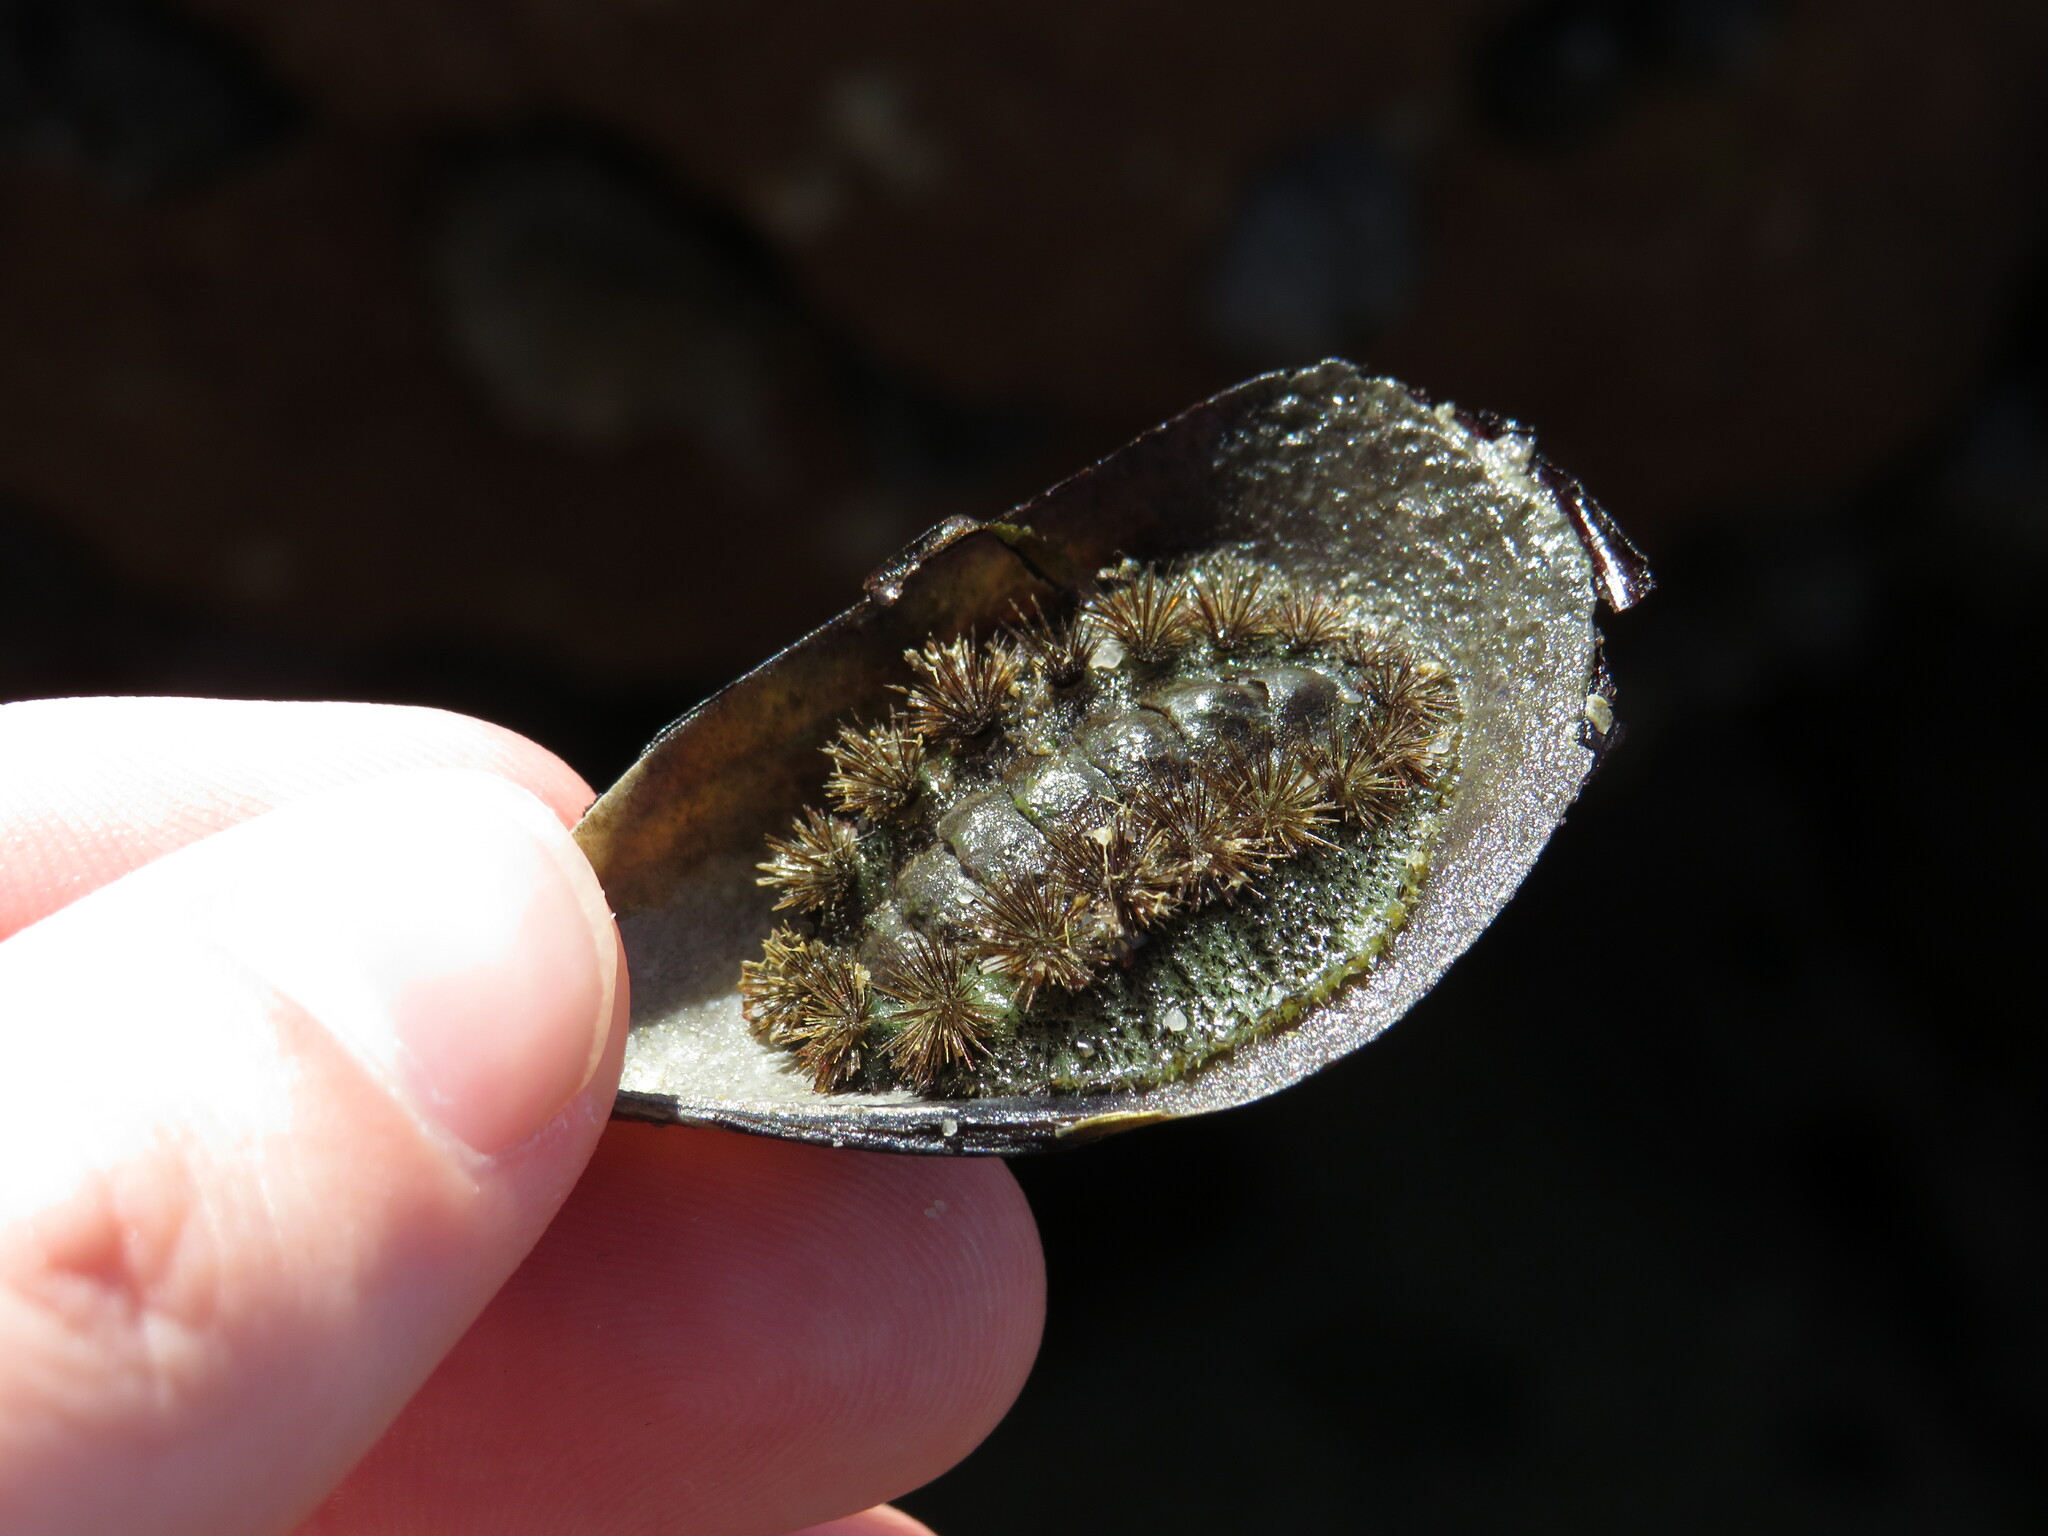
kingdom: Animalia
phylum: Mollusca
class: Polyplacophora
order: Chitonida
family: Acanthochitonidae
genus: Acanthochitona
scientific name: Acanthochitona garnoti
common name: Spiny chiton
